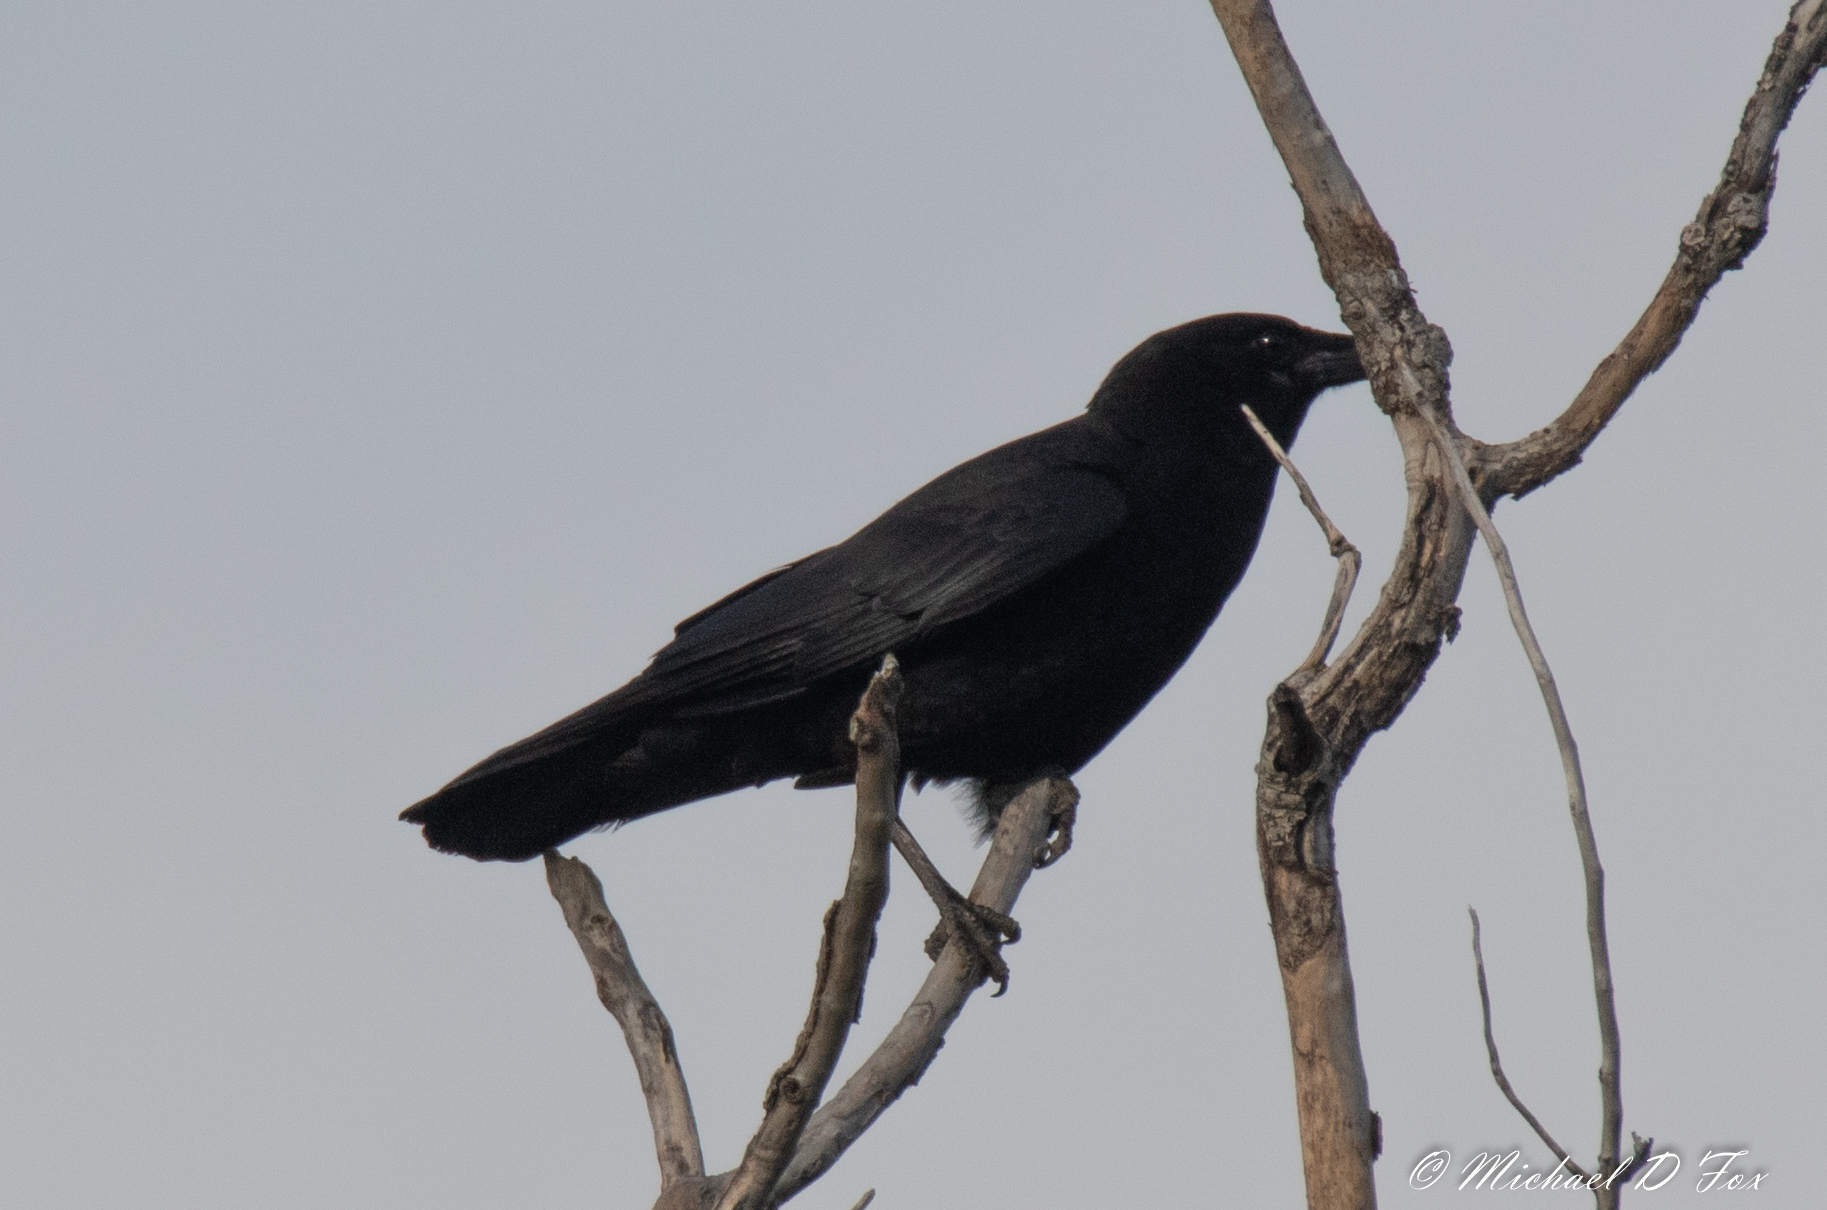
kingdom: Animalia
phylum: Chordata
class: Aves
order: Passeriformes
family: Corvidae
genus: Corvus
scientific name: Corvus brachyrhynchos
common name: American crow
